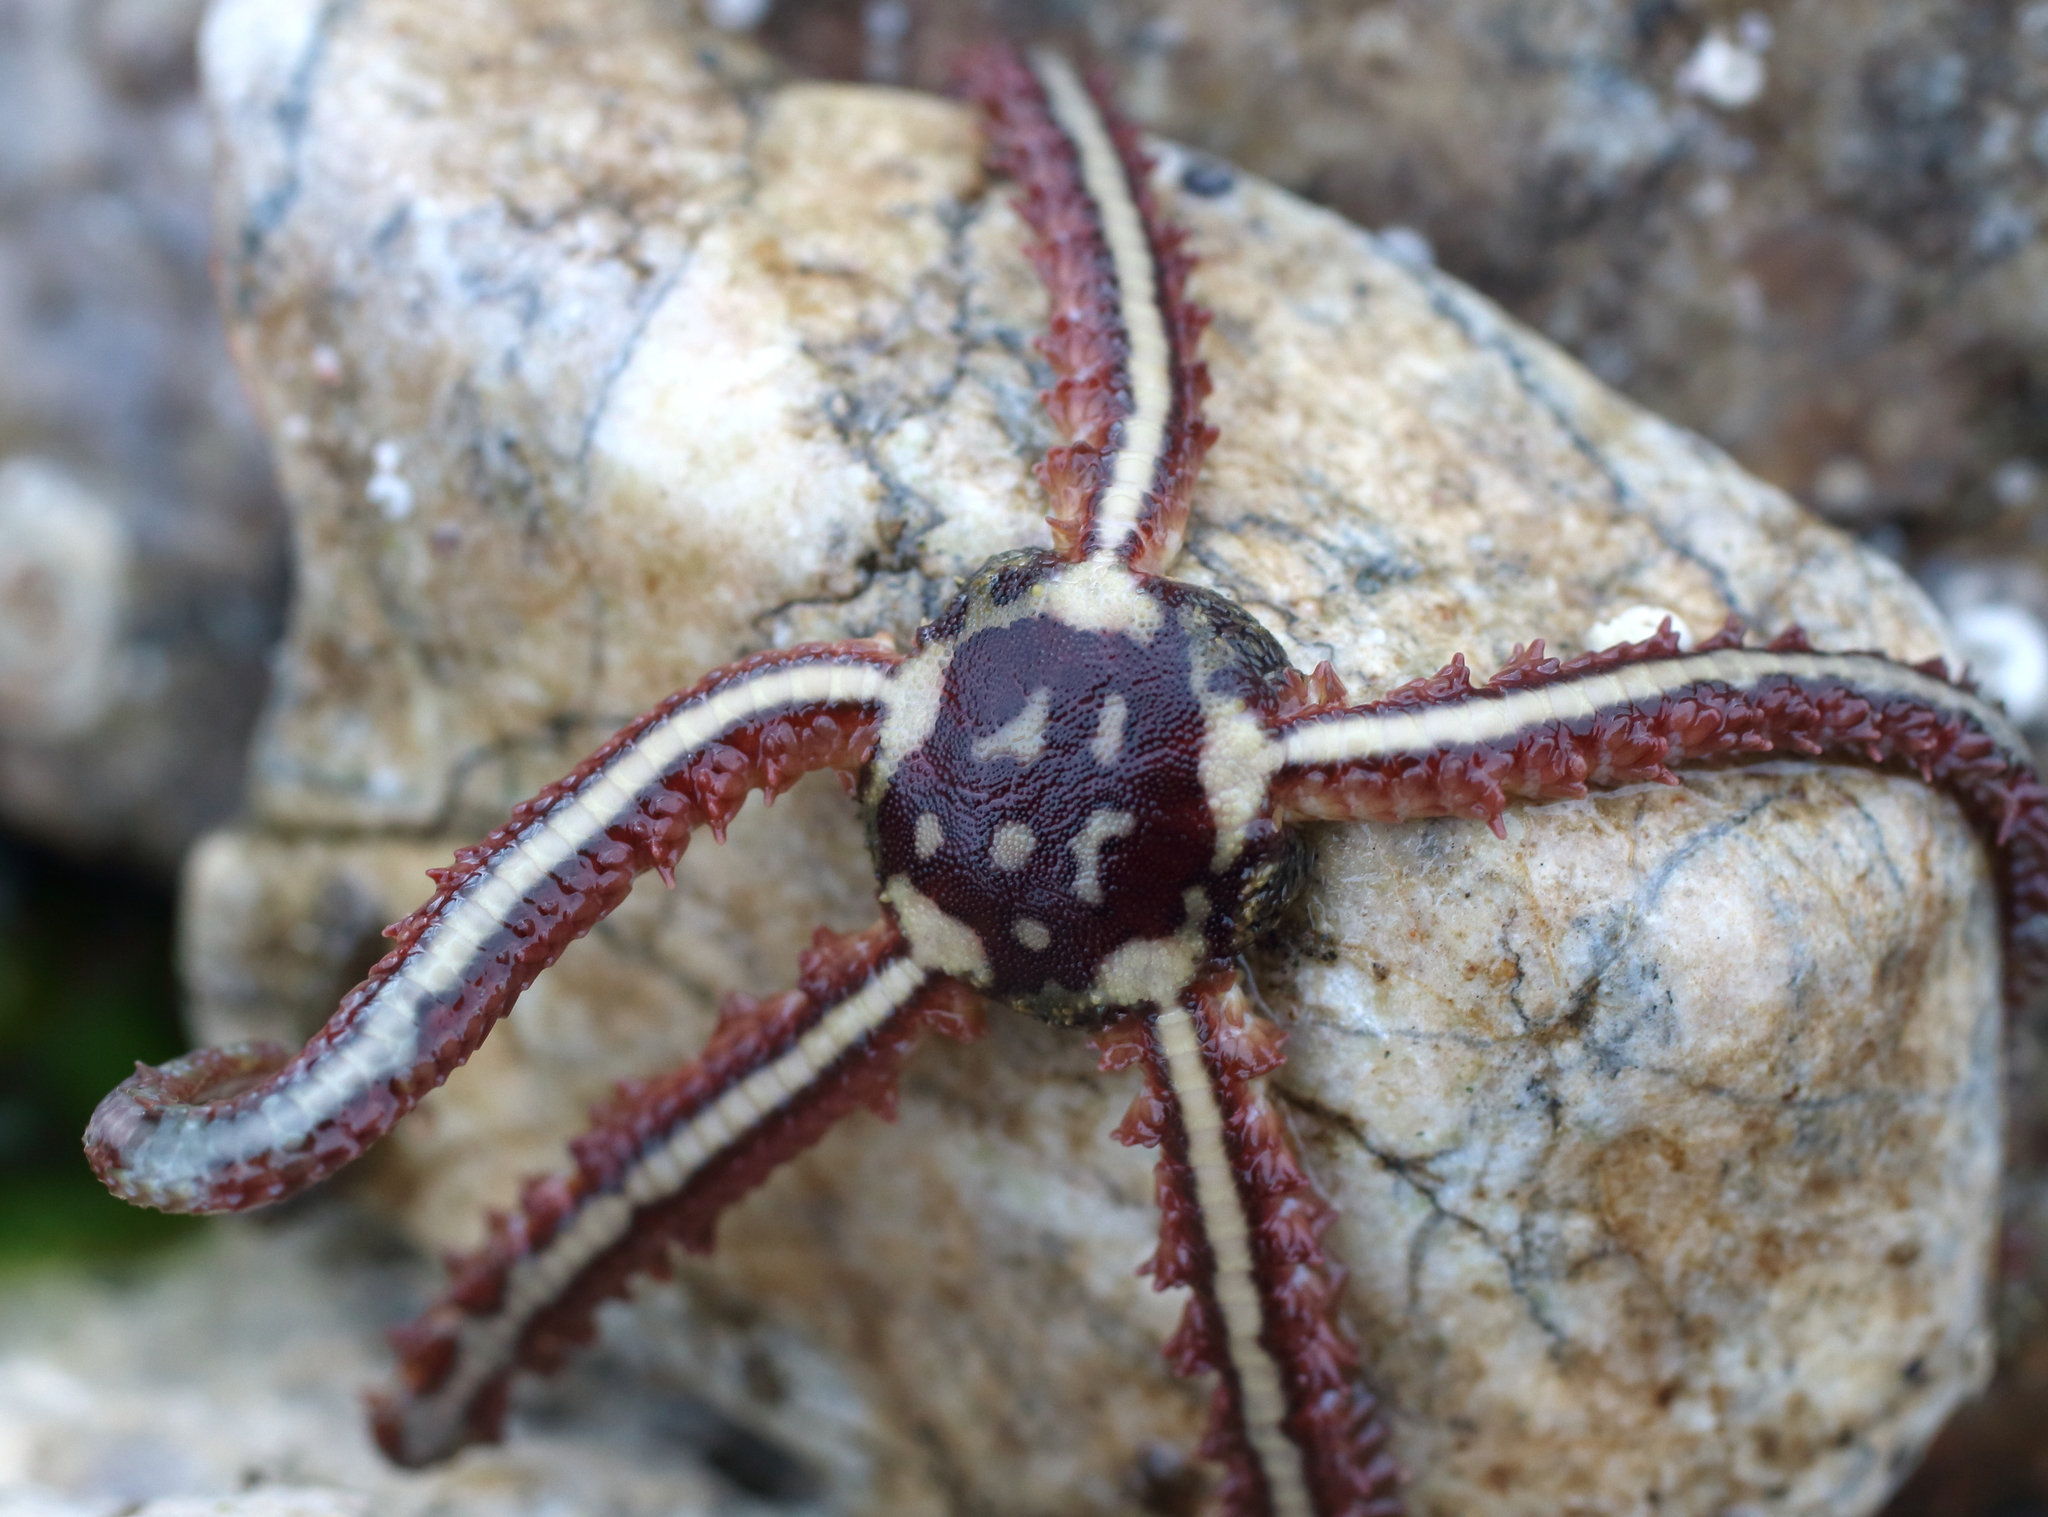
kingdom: Animalia
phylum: Echinodermata
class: Ophiuroidea
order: Amphilepidida
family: Ophiopholidae
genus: Ophiopholis
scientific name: Ophiopholis aculeata
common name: Crevice brittlestar
